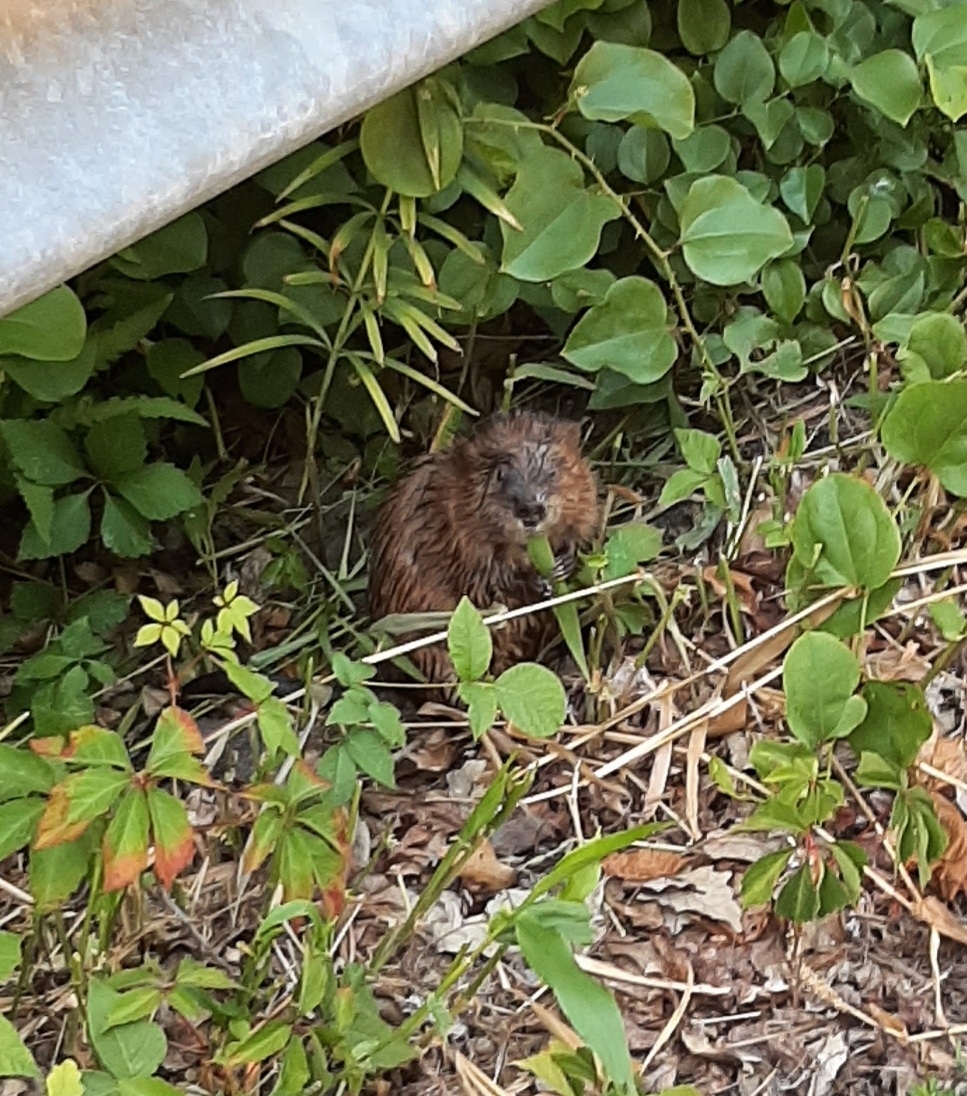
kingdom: Animalia
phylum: Chordata
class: Mammalia
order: Rodentia
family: Cricetidae
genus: Ondatra
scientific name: Ondatra zibethicus
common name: Muskrat
